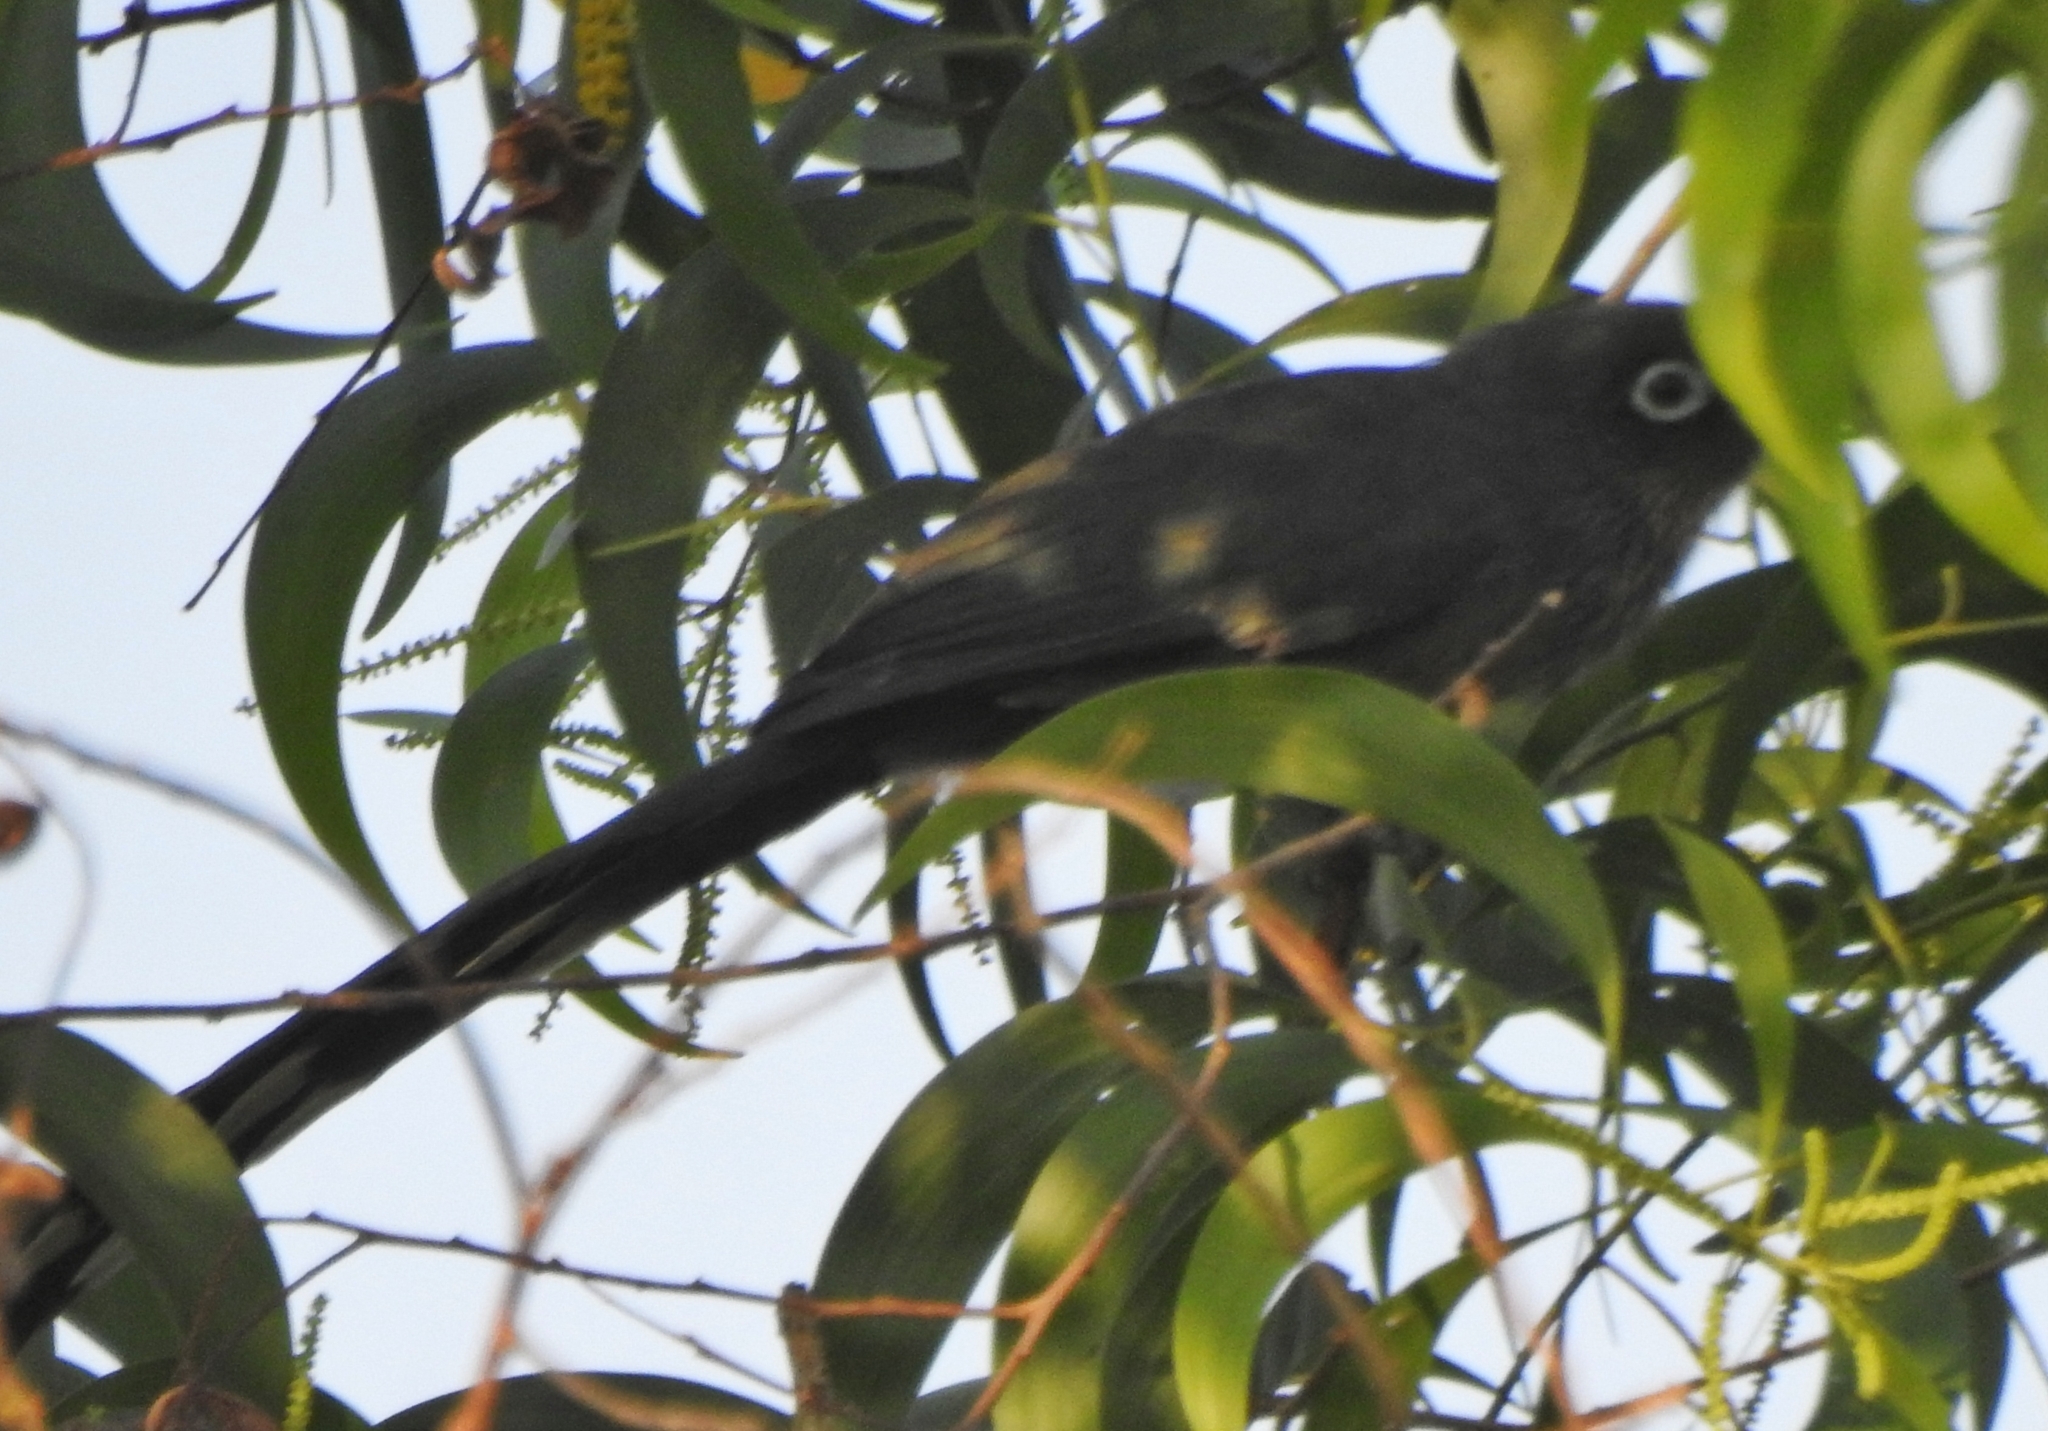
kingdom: Animalia
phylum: Chordata
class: Aves
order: Cuculiformes
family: Cuculidae
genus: Rhopodytes
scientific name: Rhopodytes viridirostris
